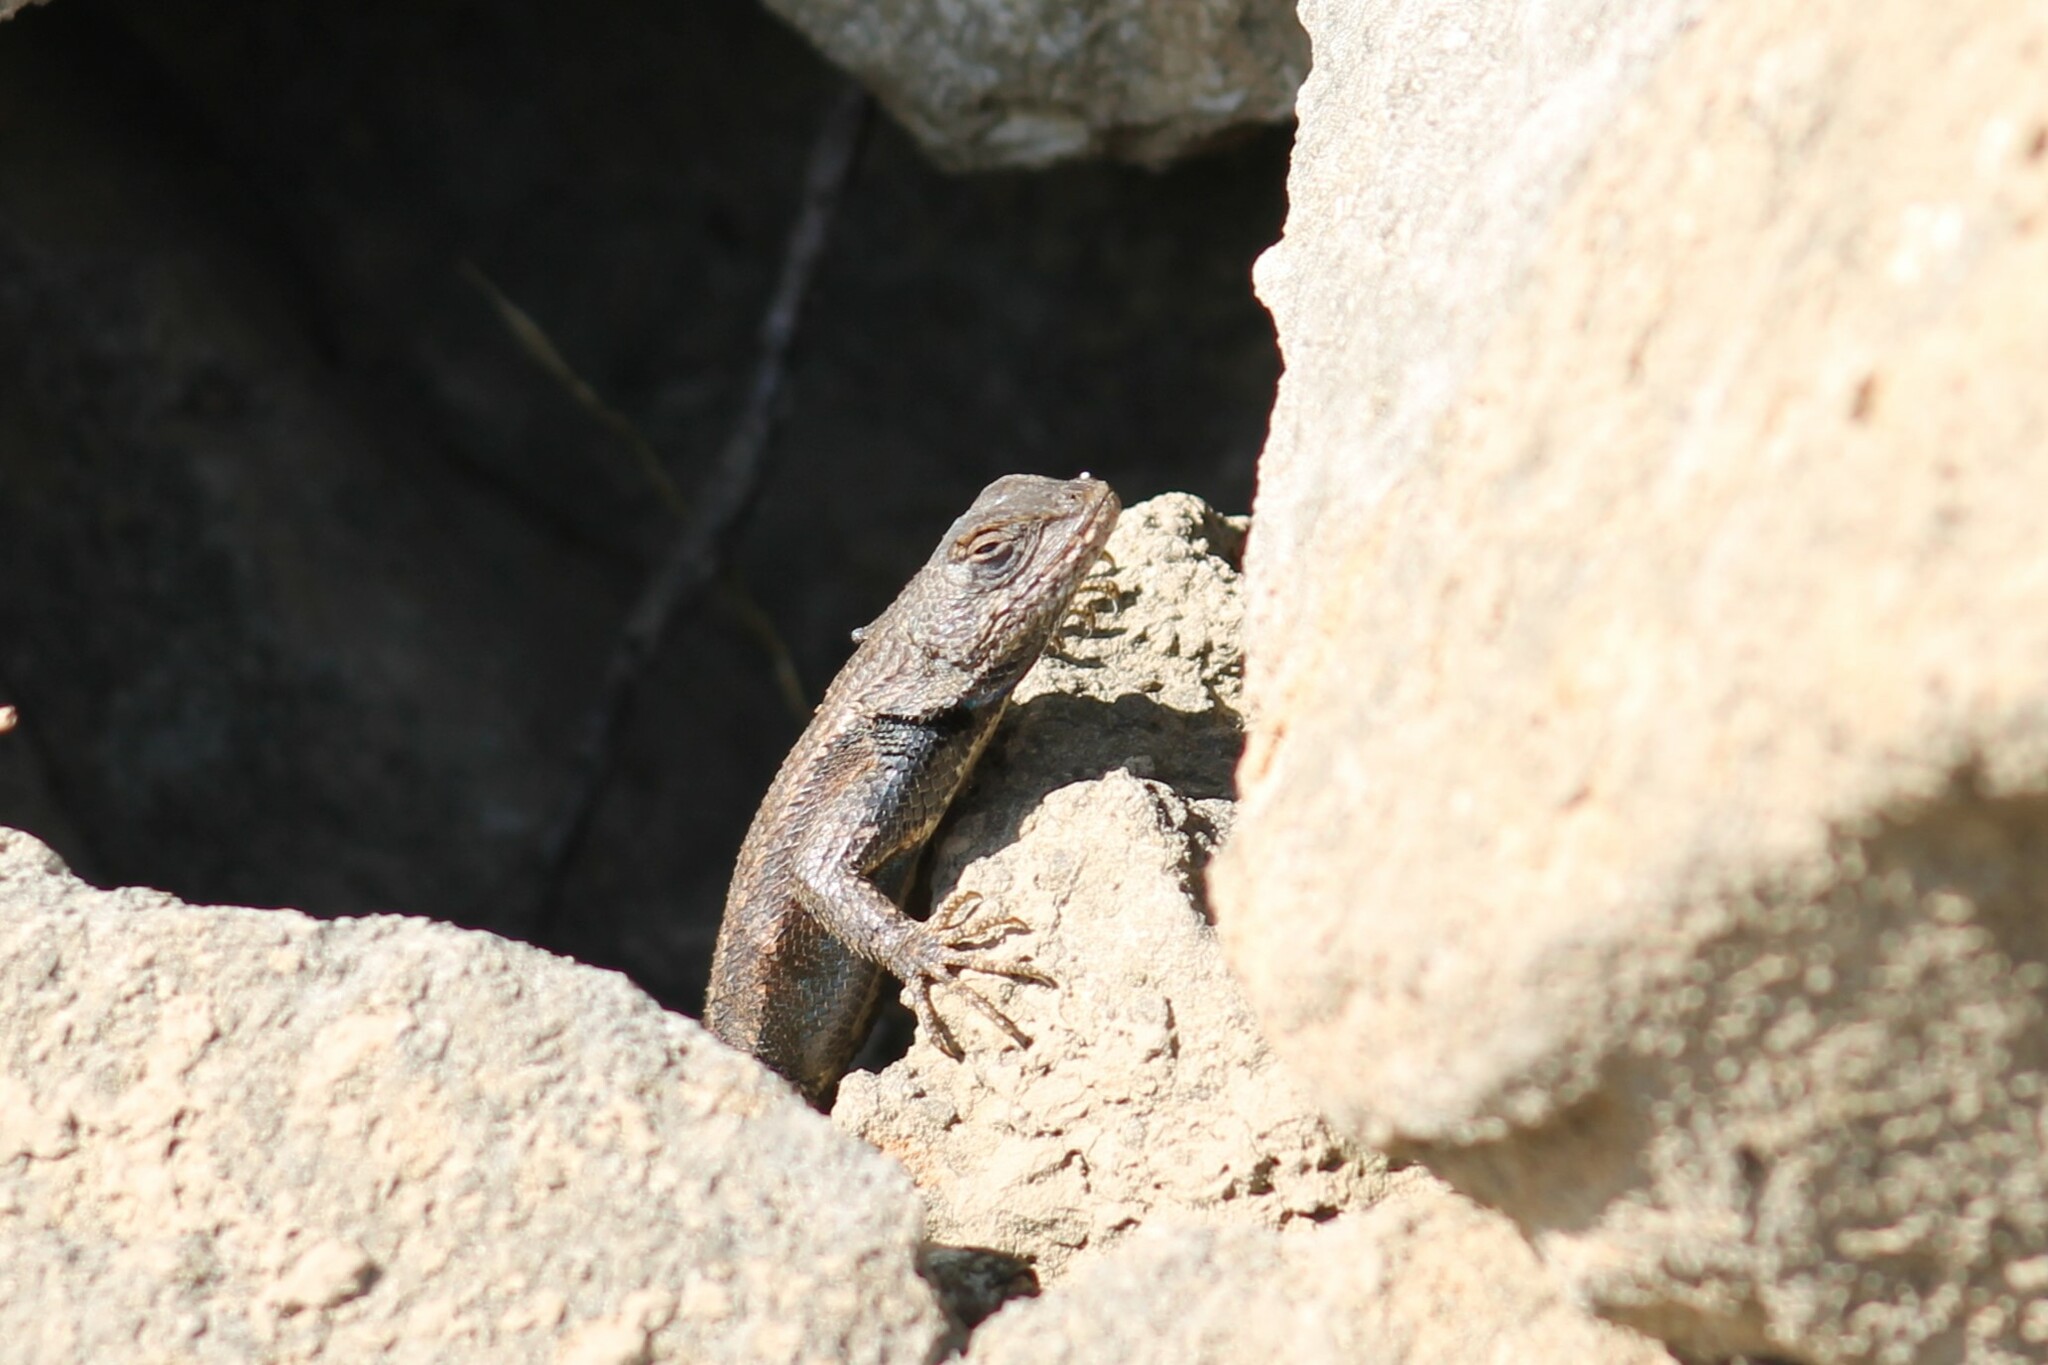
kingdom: Animalia
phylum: Chordata
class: Squamata
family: Phrynosomatidae
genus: Sceloporus
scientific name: Sceloporus undulatus
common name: Eastern fence lizard
